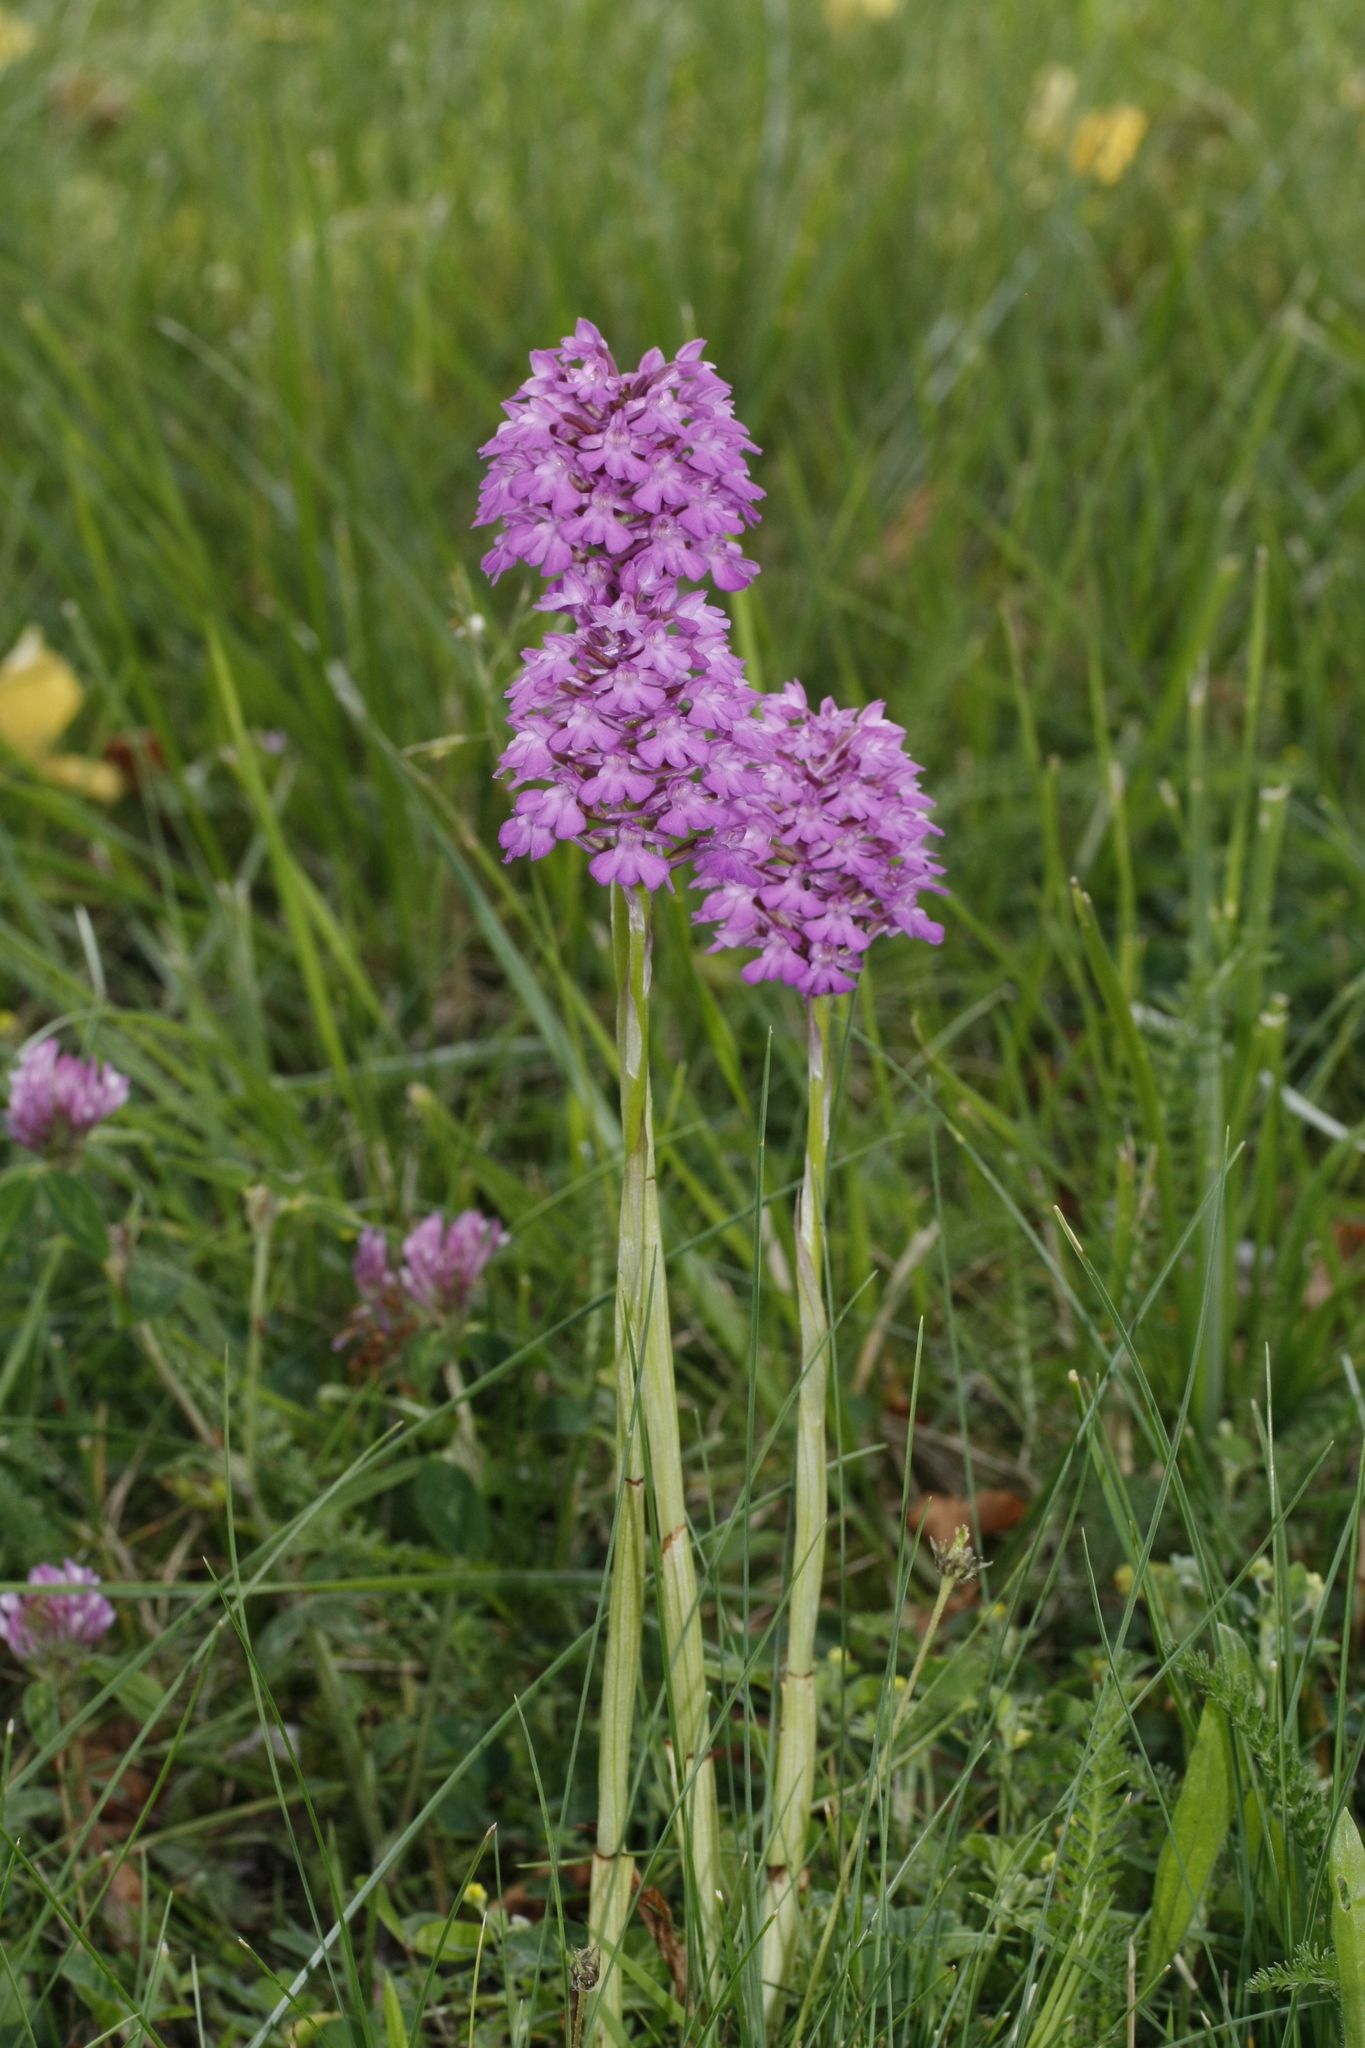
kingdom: Plantae
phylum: Tracheophyta
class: Liliopsida
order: Asparagales
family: Orchidaceae
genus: Anacamptis
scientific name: Anacamptis pyramidalis
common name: Pyramidal orchid
